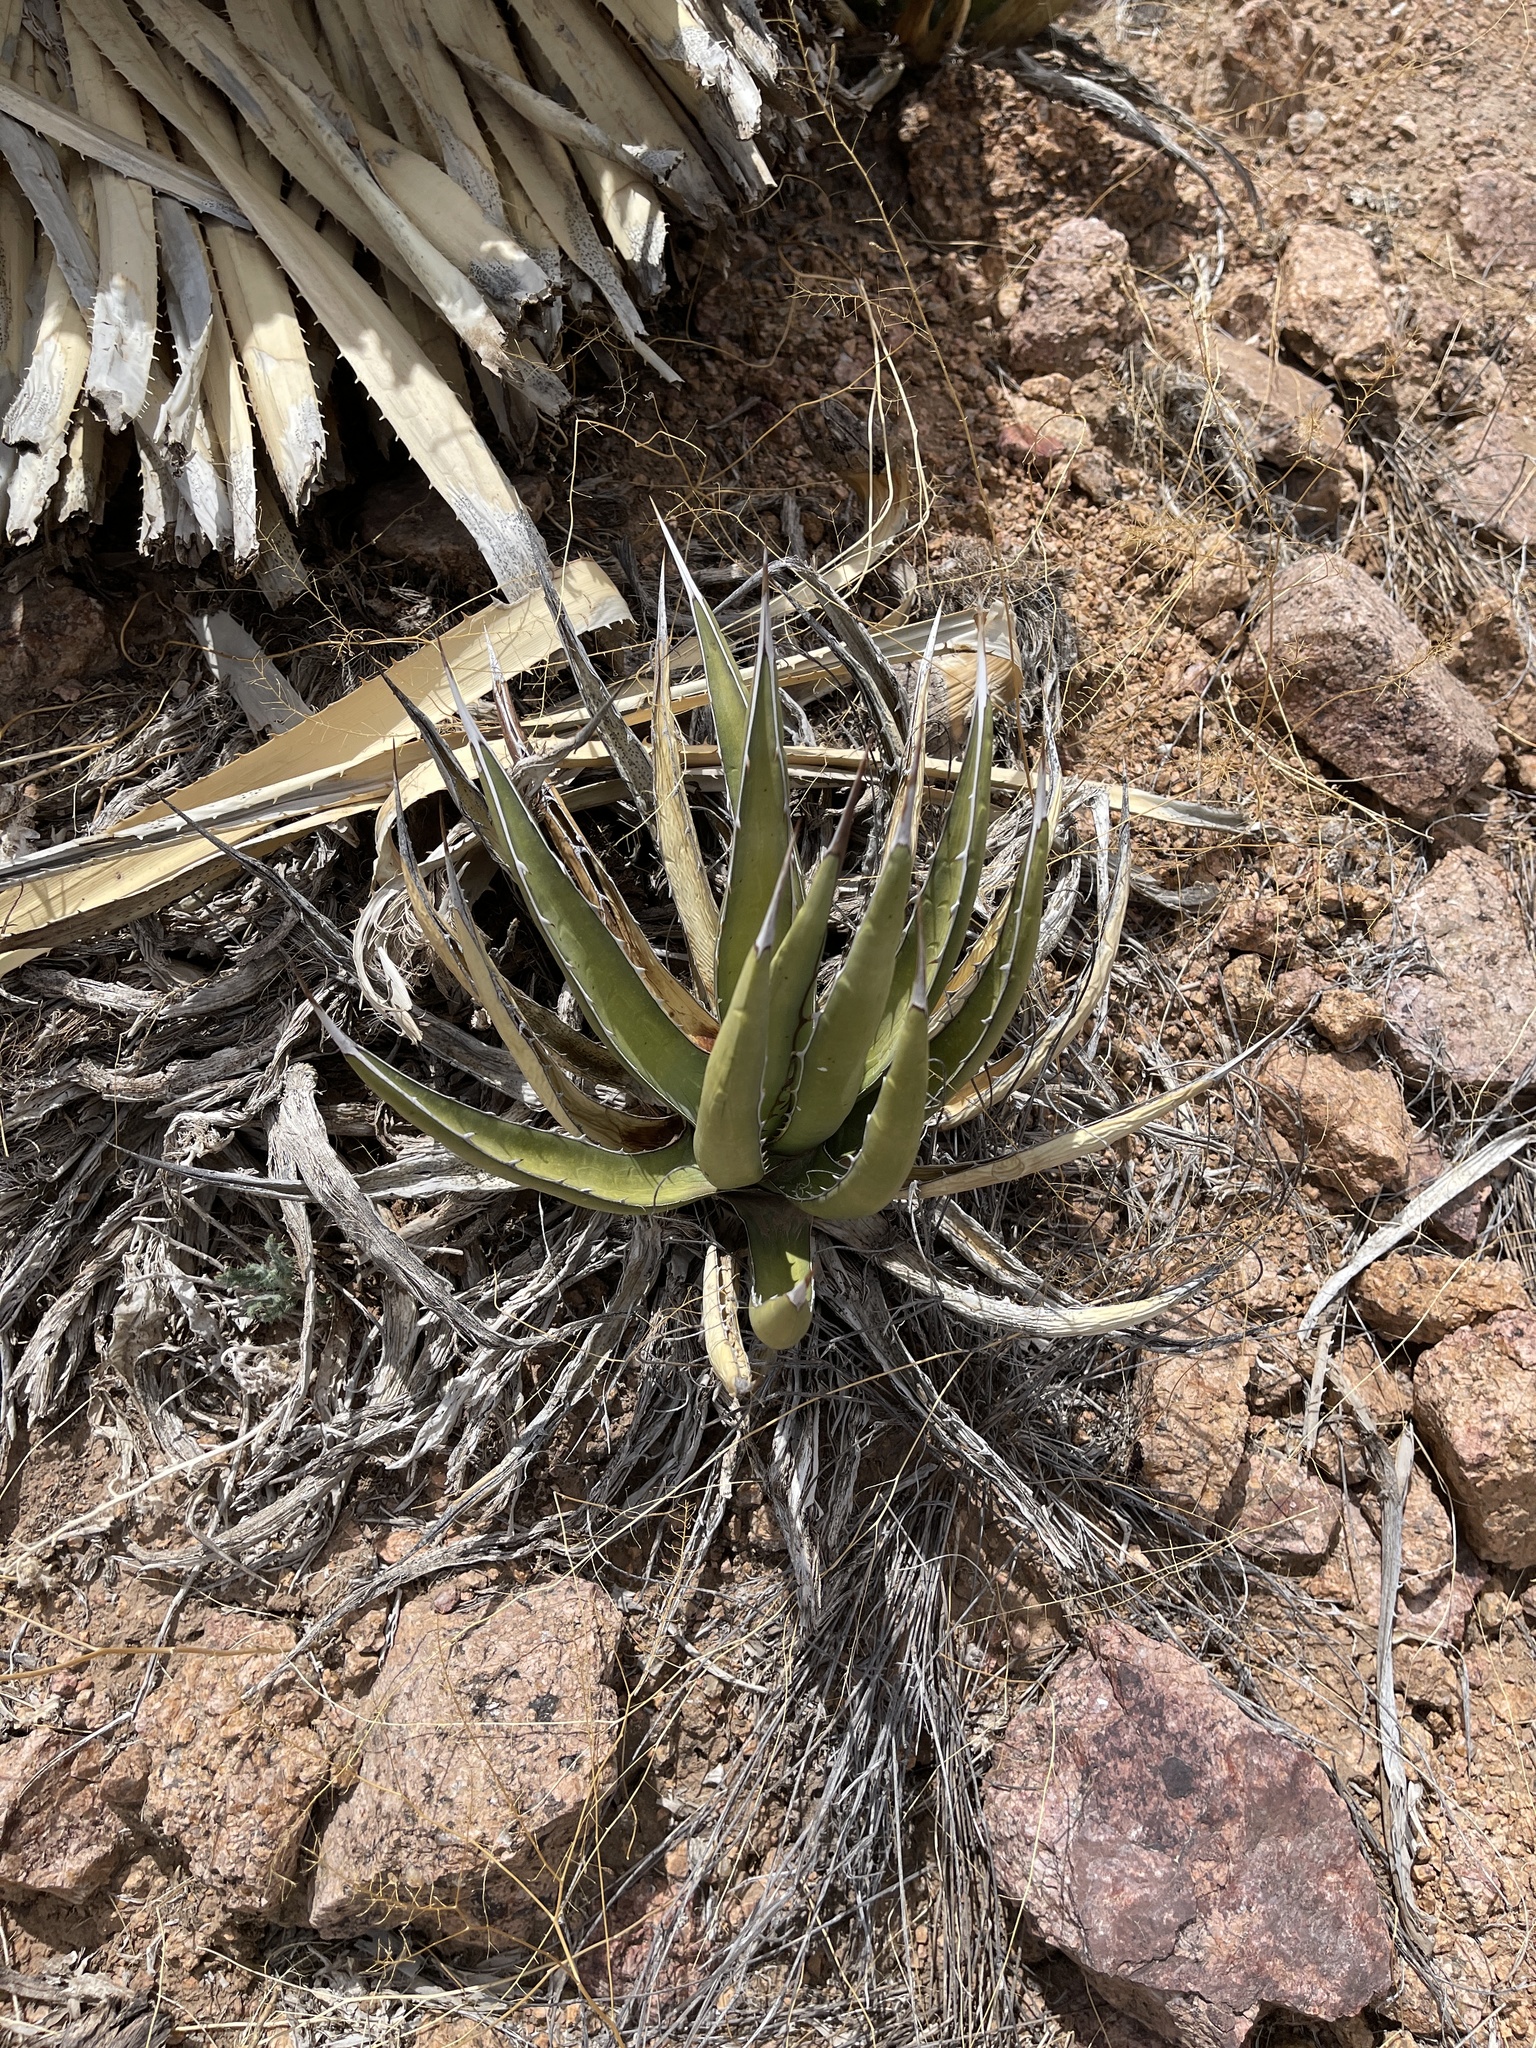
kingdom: Plantae
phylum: Tracheophyta
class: Liliopsida
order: Asparagales
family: Asparagaceae
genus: Agave
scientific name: Agave lechuguilla
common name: Lecheguilla agave
